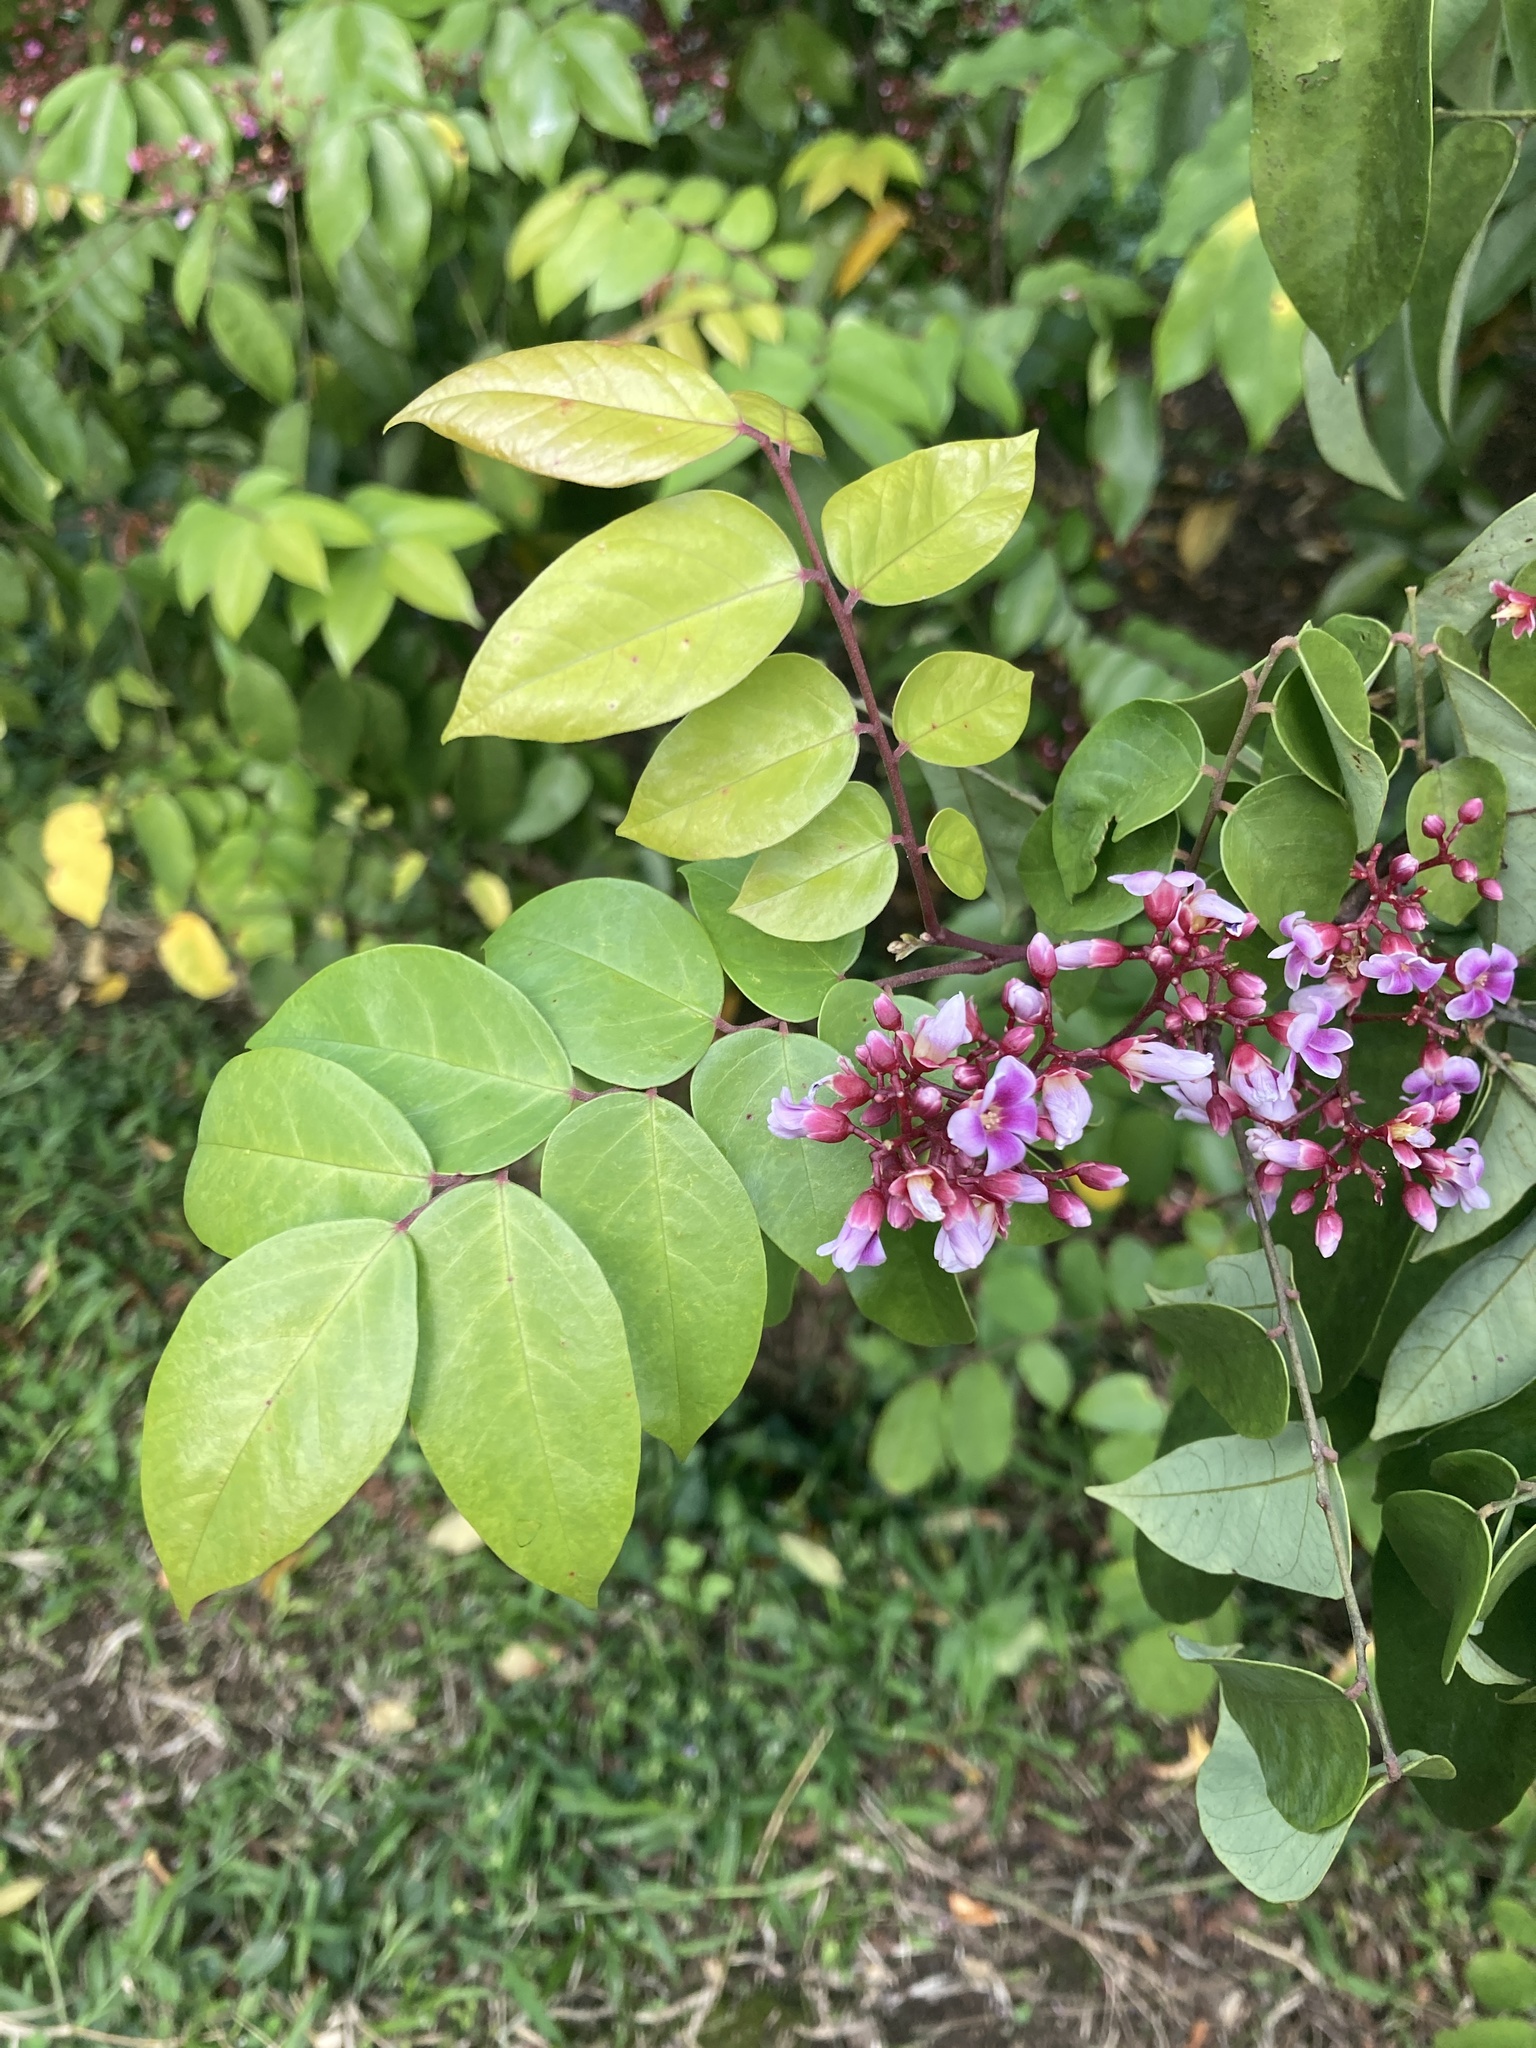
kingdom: Plantae
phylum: Tracheophyta
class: Magnoliopsida
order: Oxalidales
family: Oxalidaceae
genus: Averrhoa
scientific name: Averrhoa carambola
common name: Blimbing
